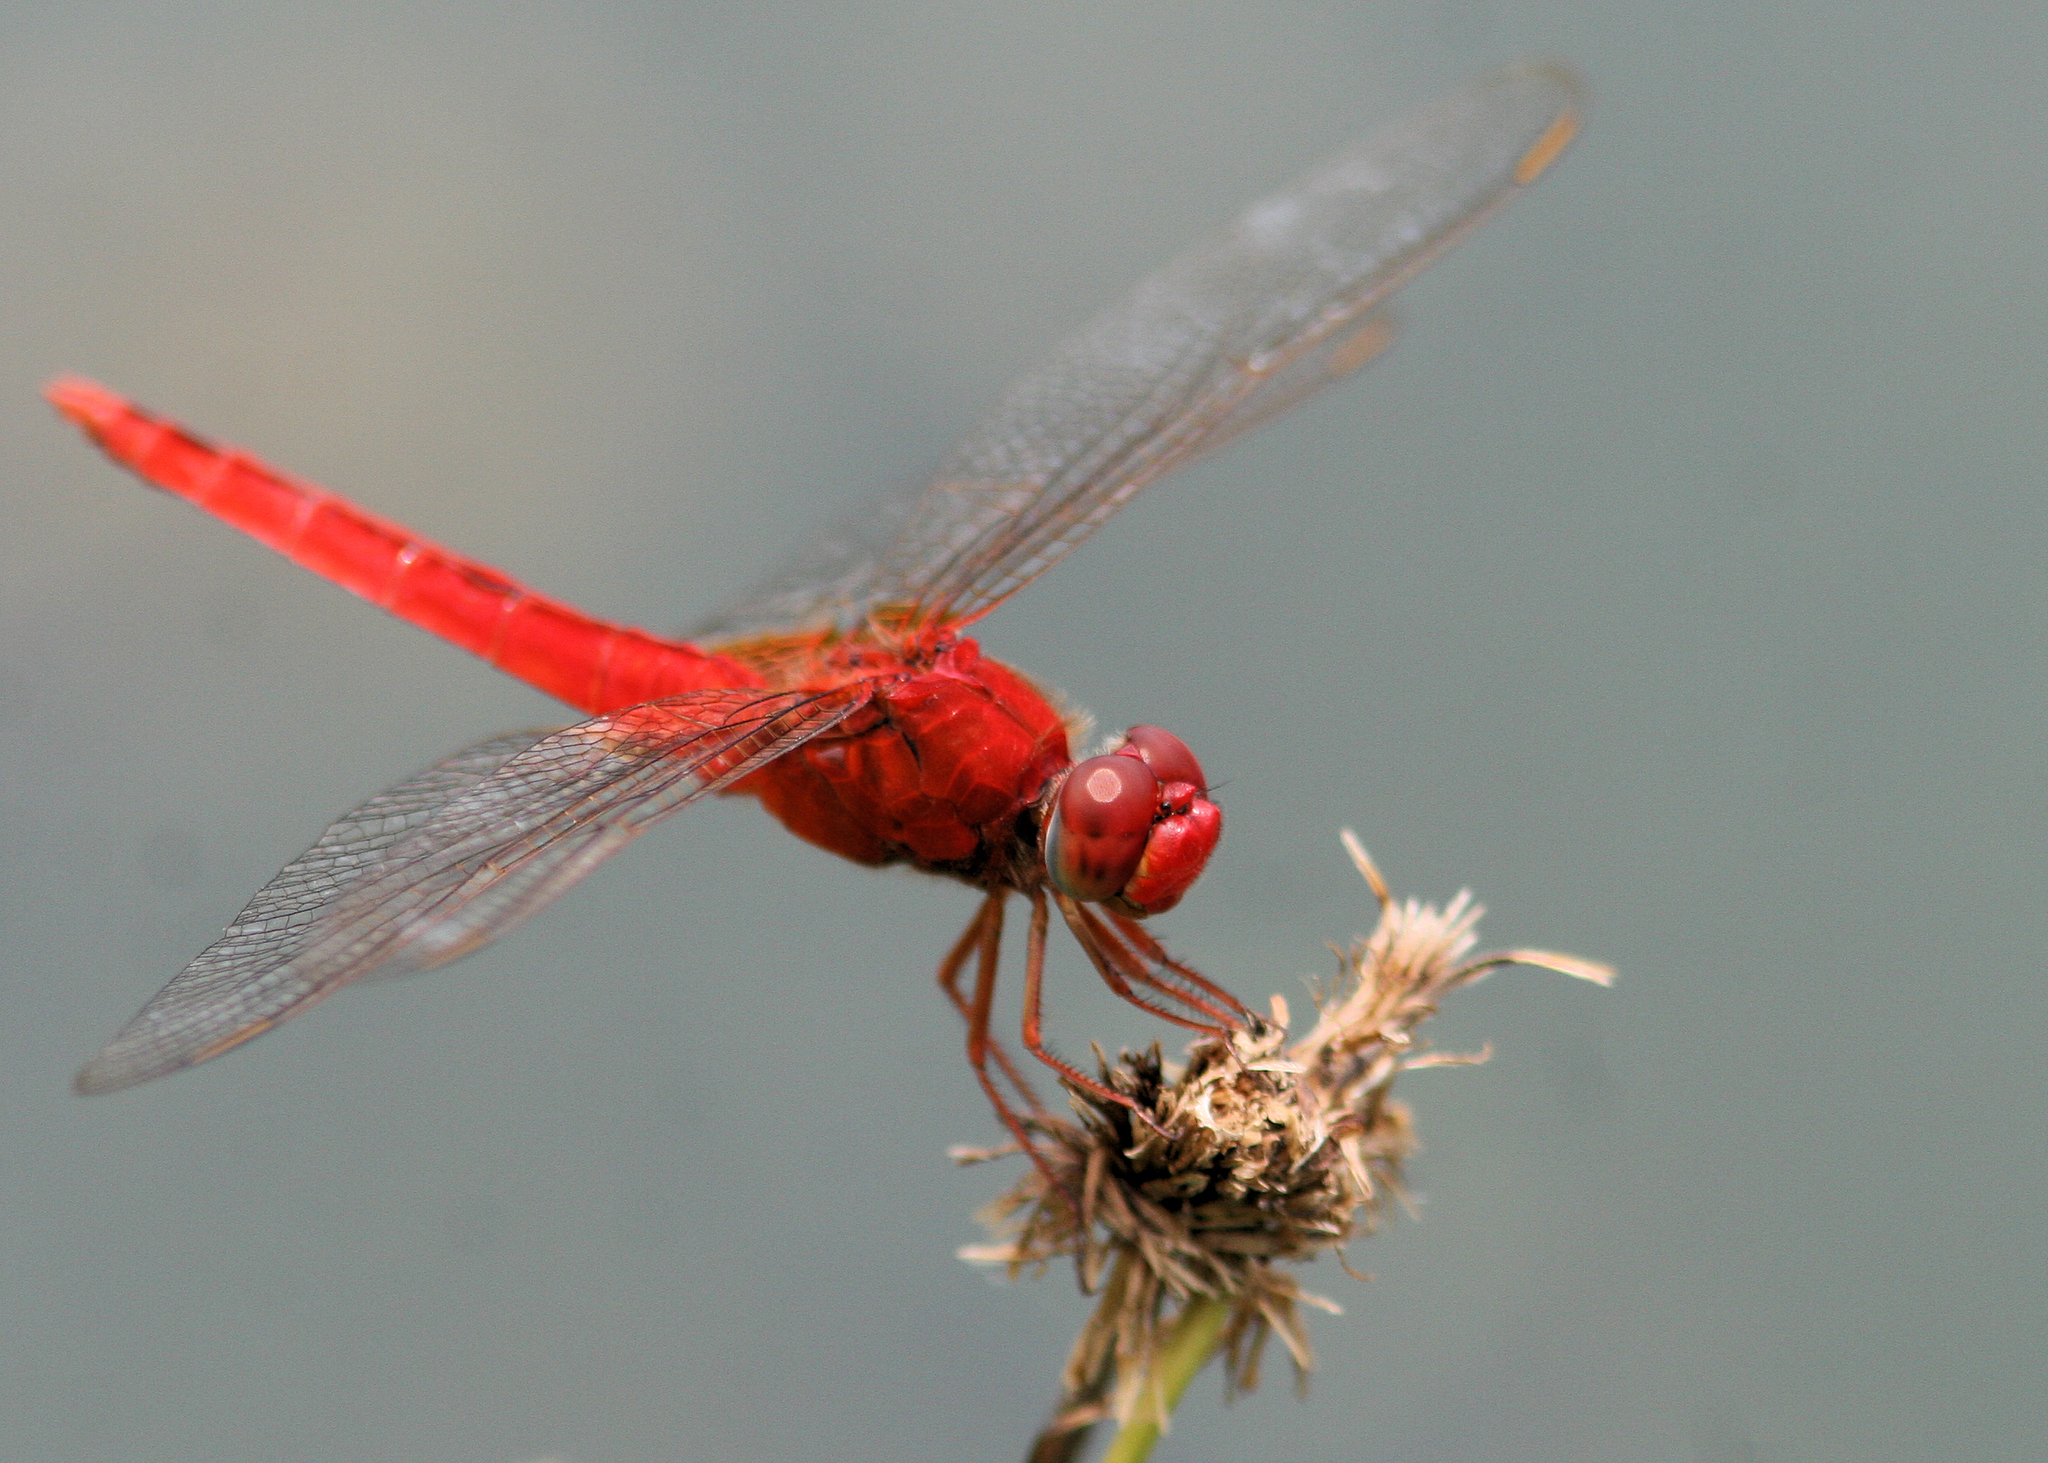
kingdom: Animalia
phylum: Arthropoda
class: Insecta
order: Odonata
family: Libellulidae
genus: Crocothemis
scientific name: Crocothemis servilia
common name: Scarlet skimmer
